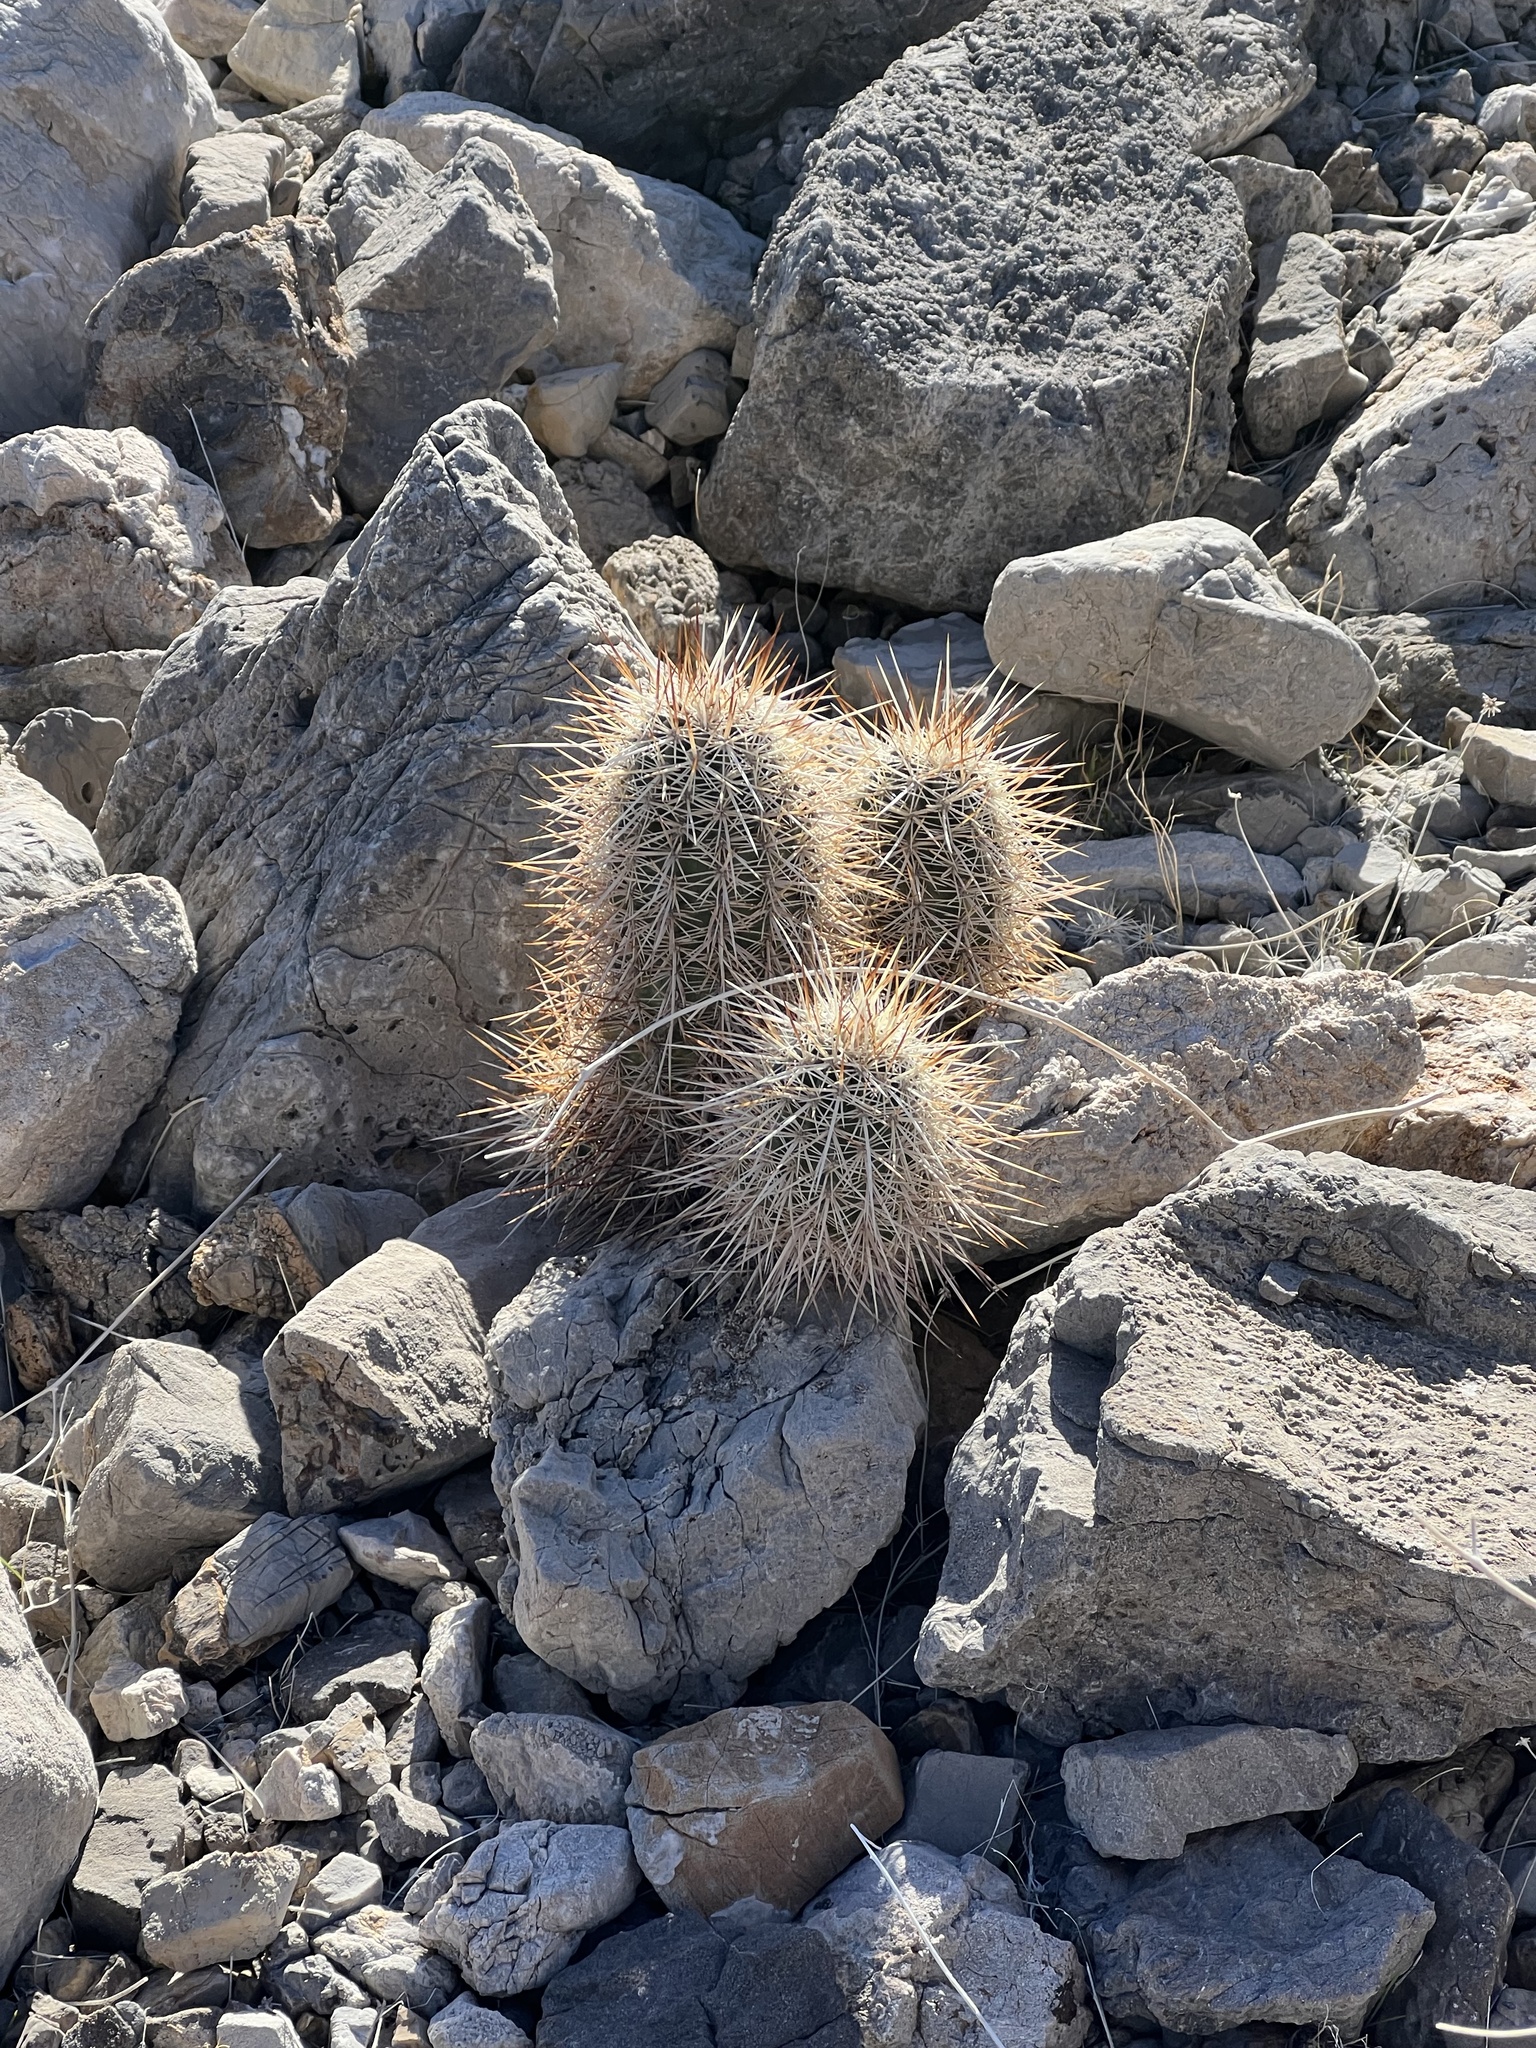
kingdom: Plantae
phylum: Tracheophyta
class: Magnoliopsida
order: Caryophyllales
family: Cactaceae
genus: Echinocereus
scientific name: Echinocereus engelmannii
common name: Engelmann's hedgehog cactus
